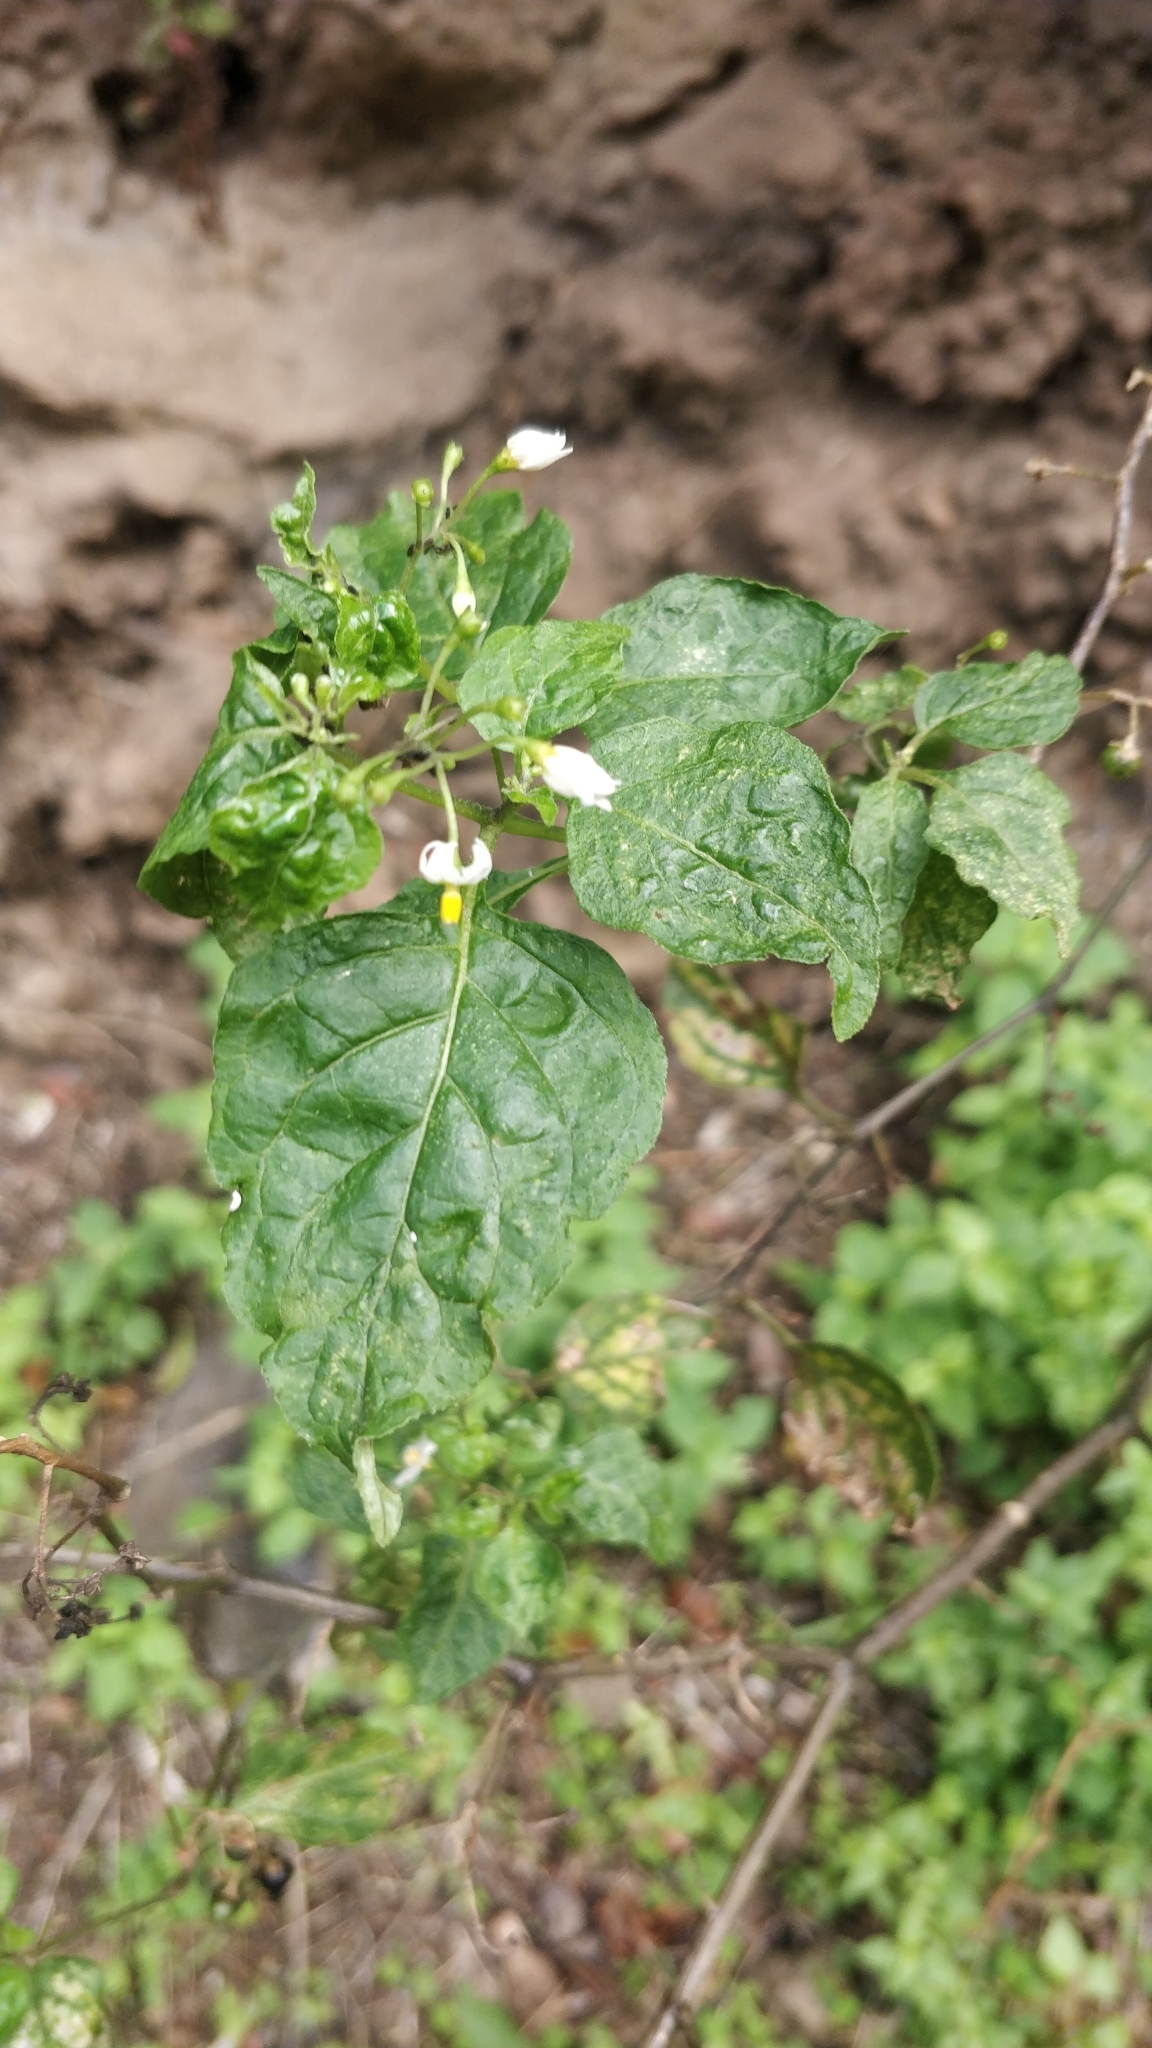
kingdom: Plantae
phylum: Tracheophyta
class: Magnoliopsida
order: Solanales
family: Solanaceae
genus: Solanum
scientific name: Solanum nigrum
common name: Black nightshade
